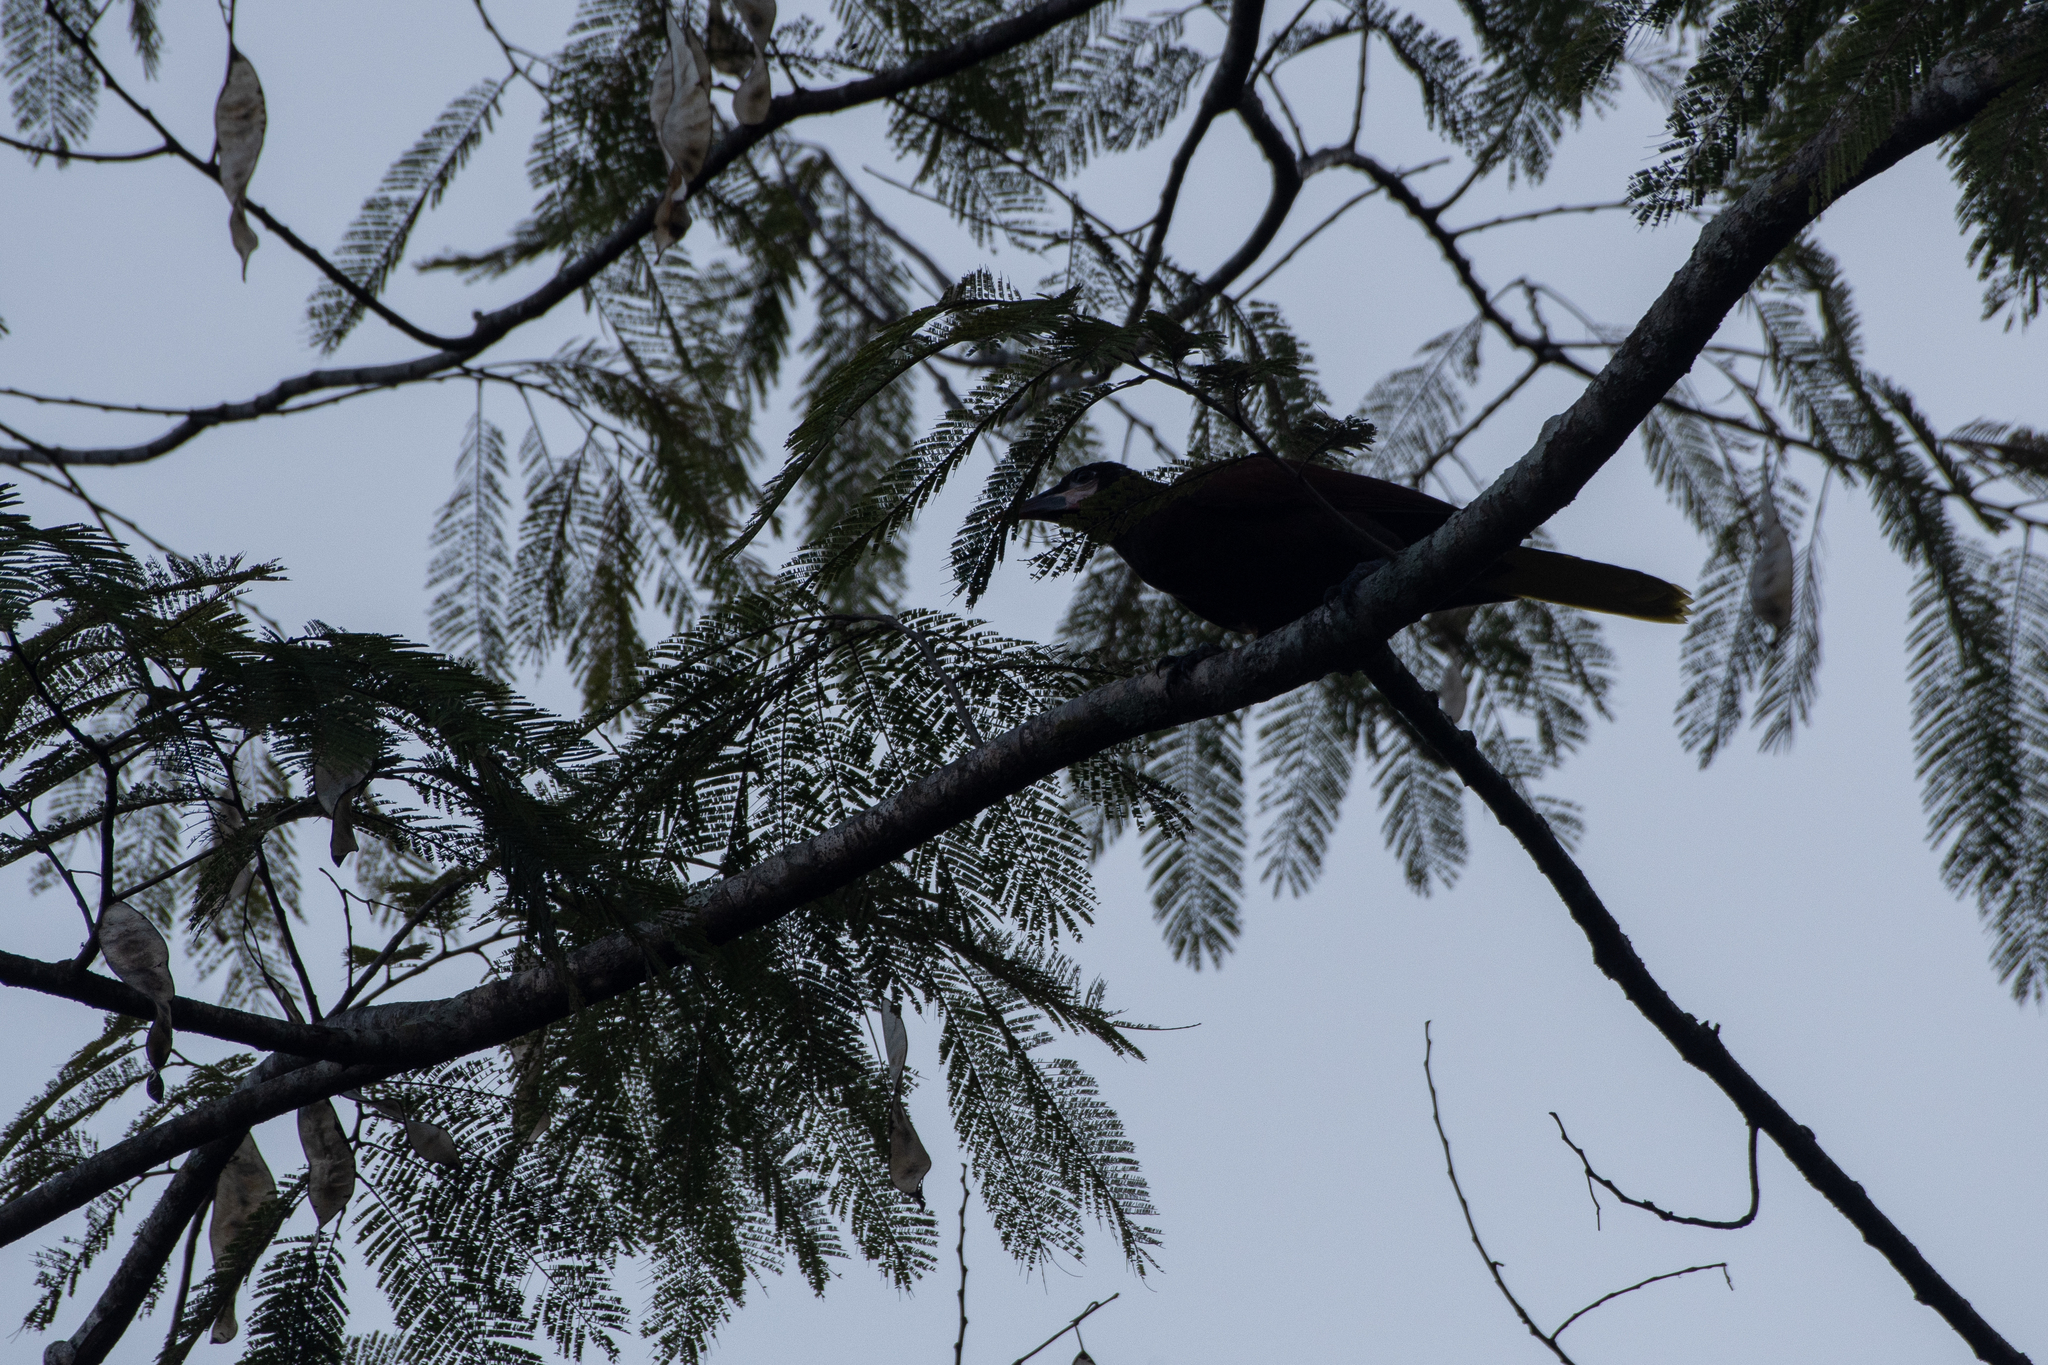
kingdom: Animalia
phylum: Chordata
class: Aves
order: Passeriformes
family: Icteridae
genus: Psarocolius
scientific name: Psarocolius montezuma
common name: Montezuma oropendola
